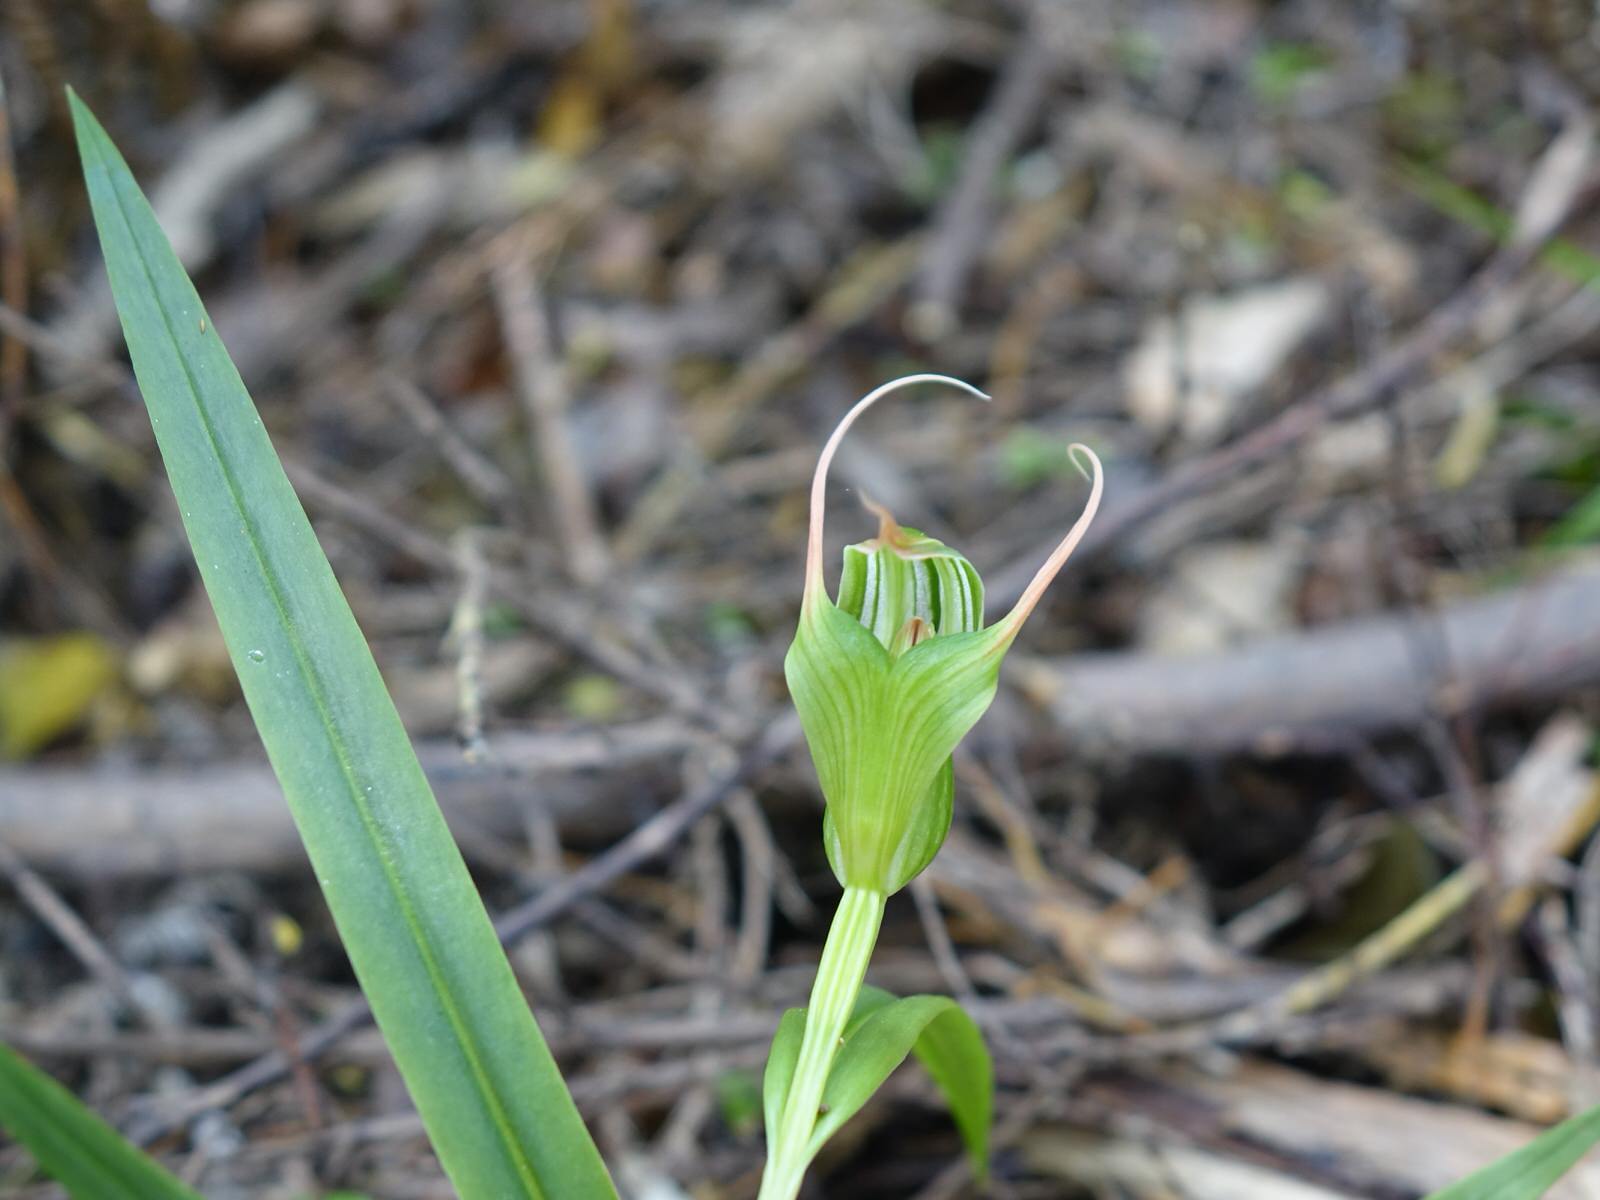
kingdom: Plantae
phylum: Tracheophyta
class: Liliopsida
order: Asparagales
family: Orchidaceae
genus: Pterostylis
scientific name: Pterostylis banksii
